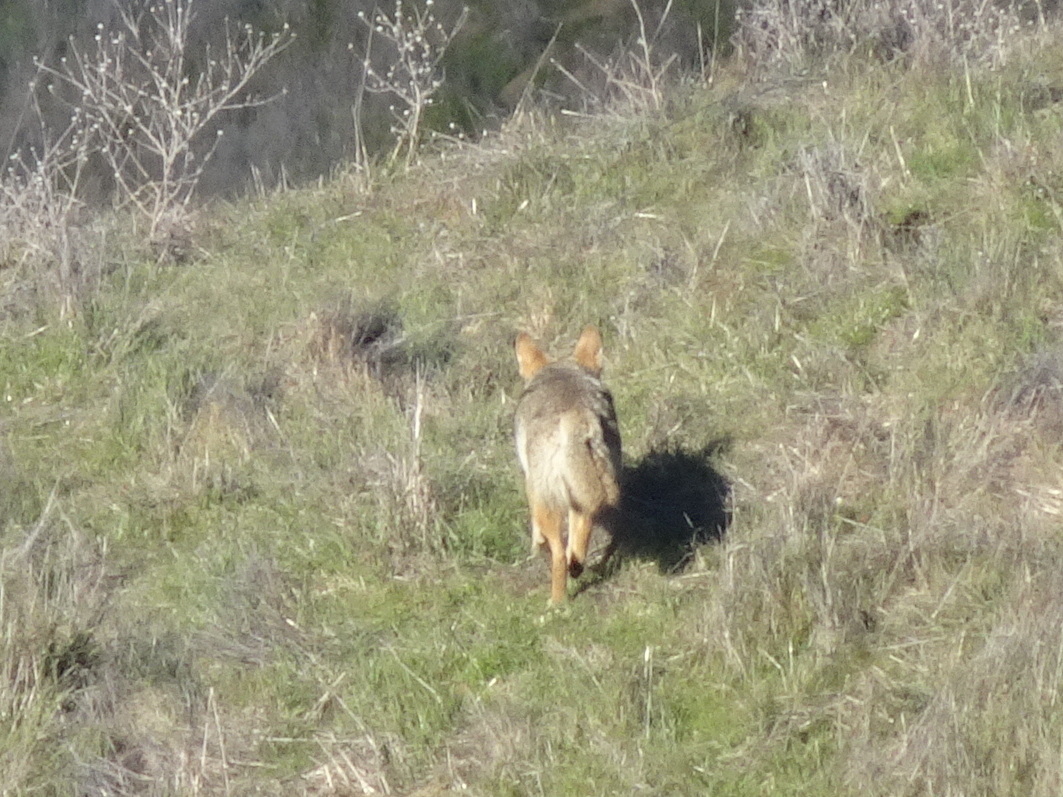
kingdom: Animalia
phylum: Chordata
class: Mammalia
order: Carnivora
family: Canidae
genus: Canis
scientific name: Canis latrans
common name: Coyote
